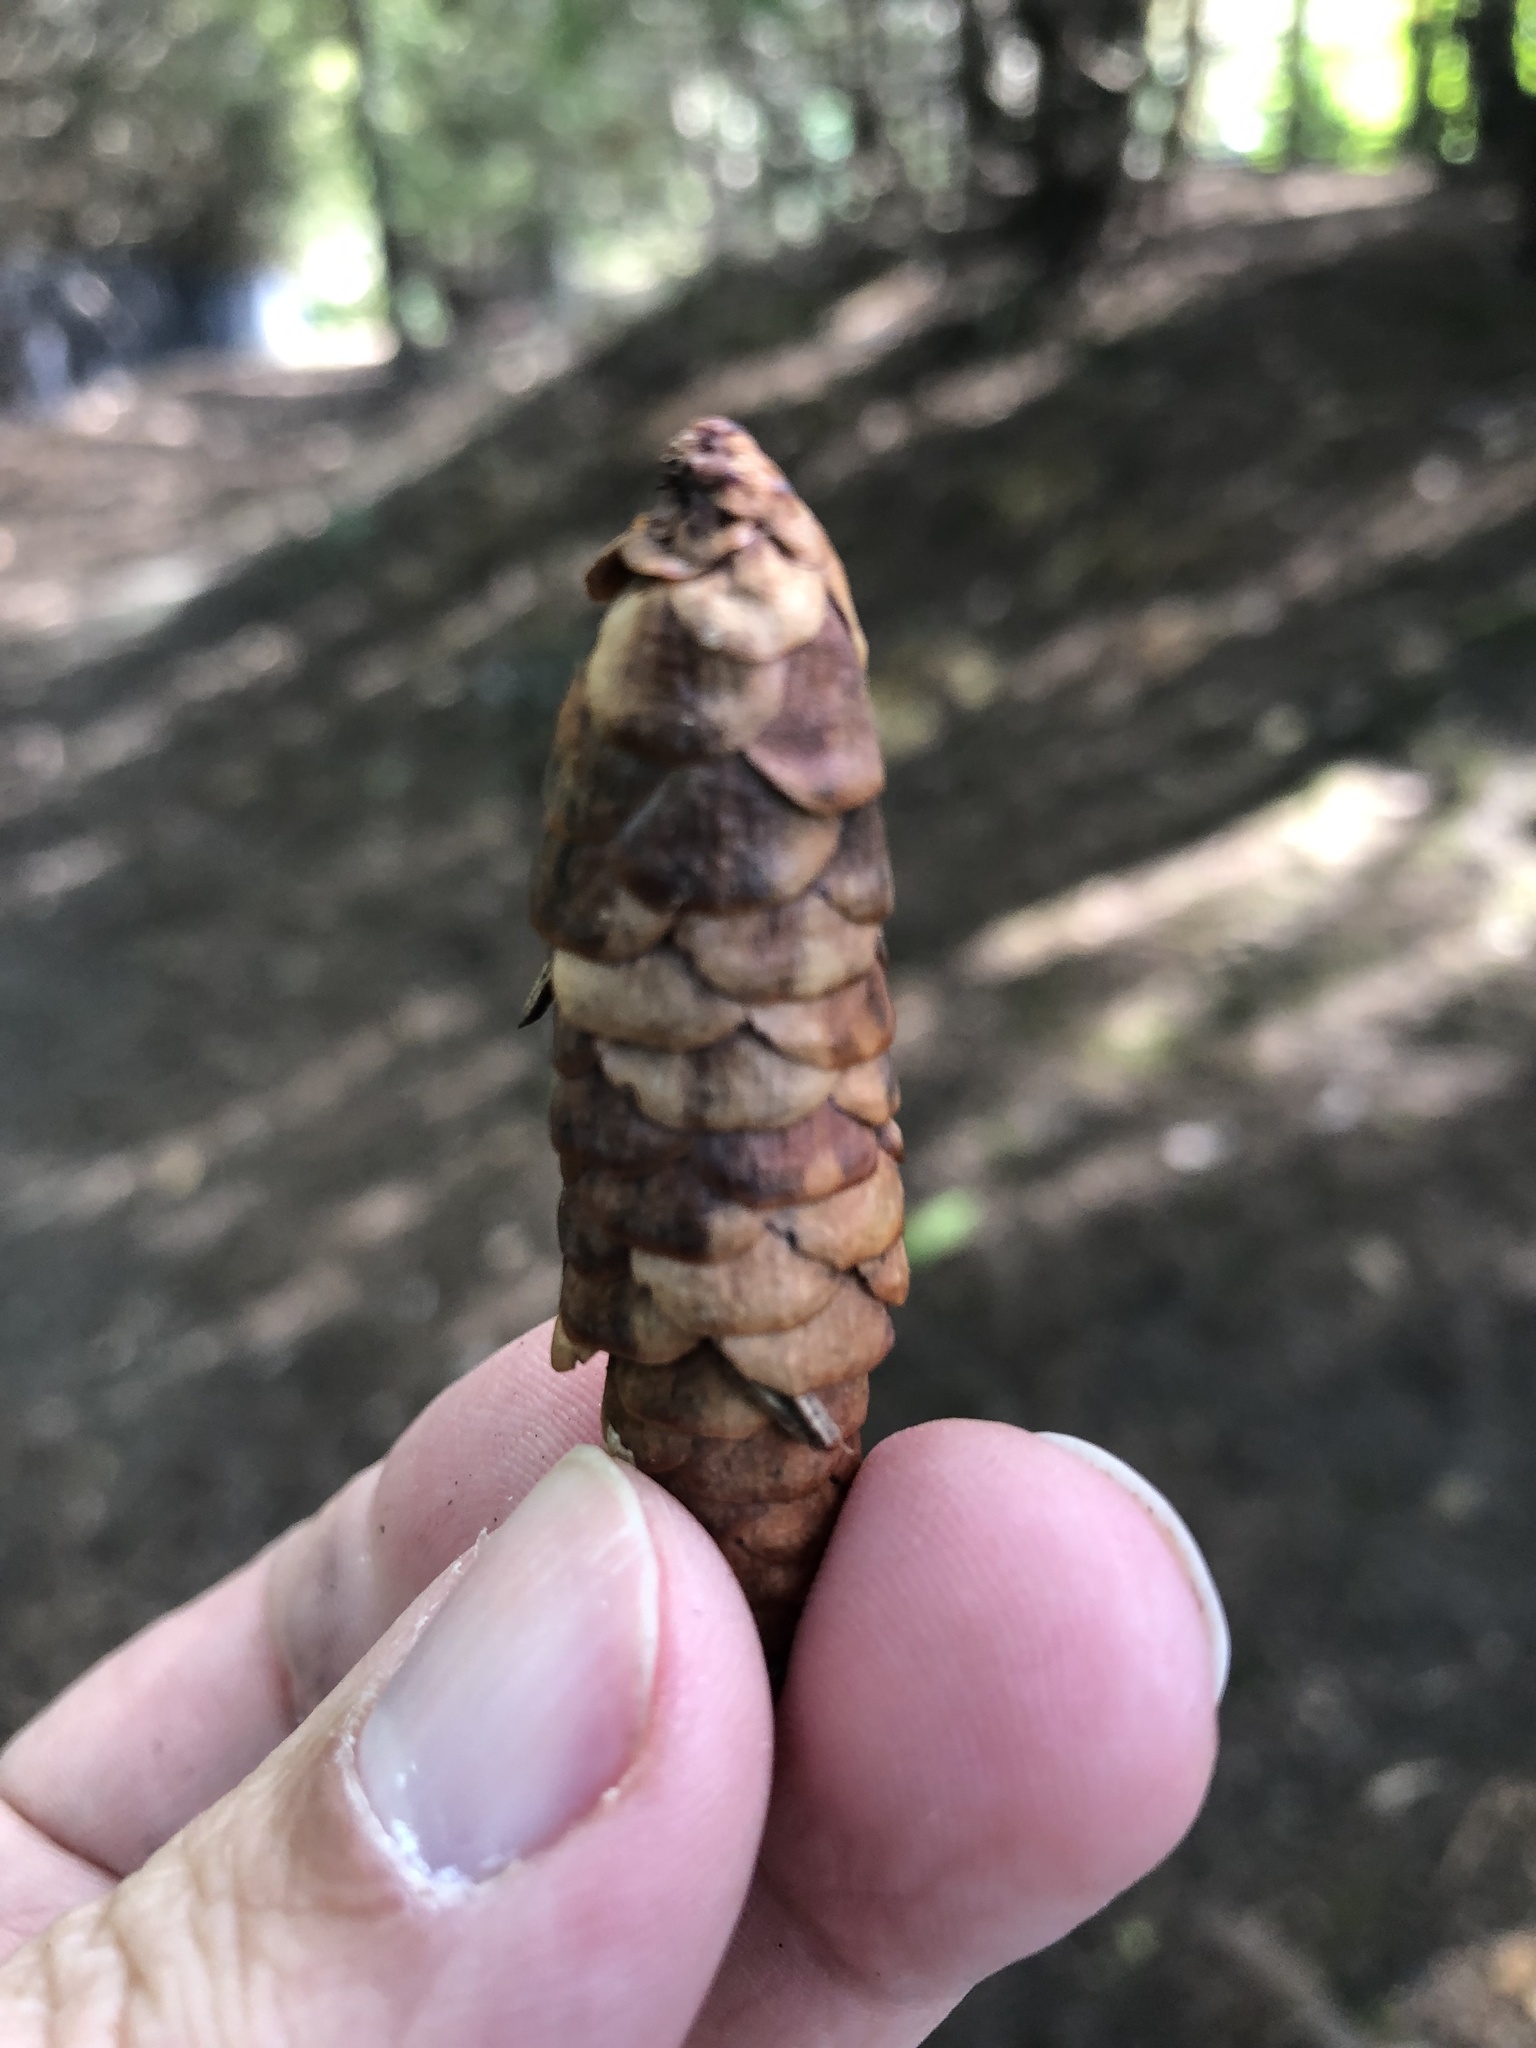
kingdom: Plantae
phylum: Tracheophyta
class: Pinopsida
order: Pinales
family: Pinaceae
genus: Picea
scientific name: Picea glauca
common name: White spruce
